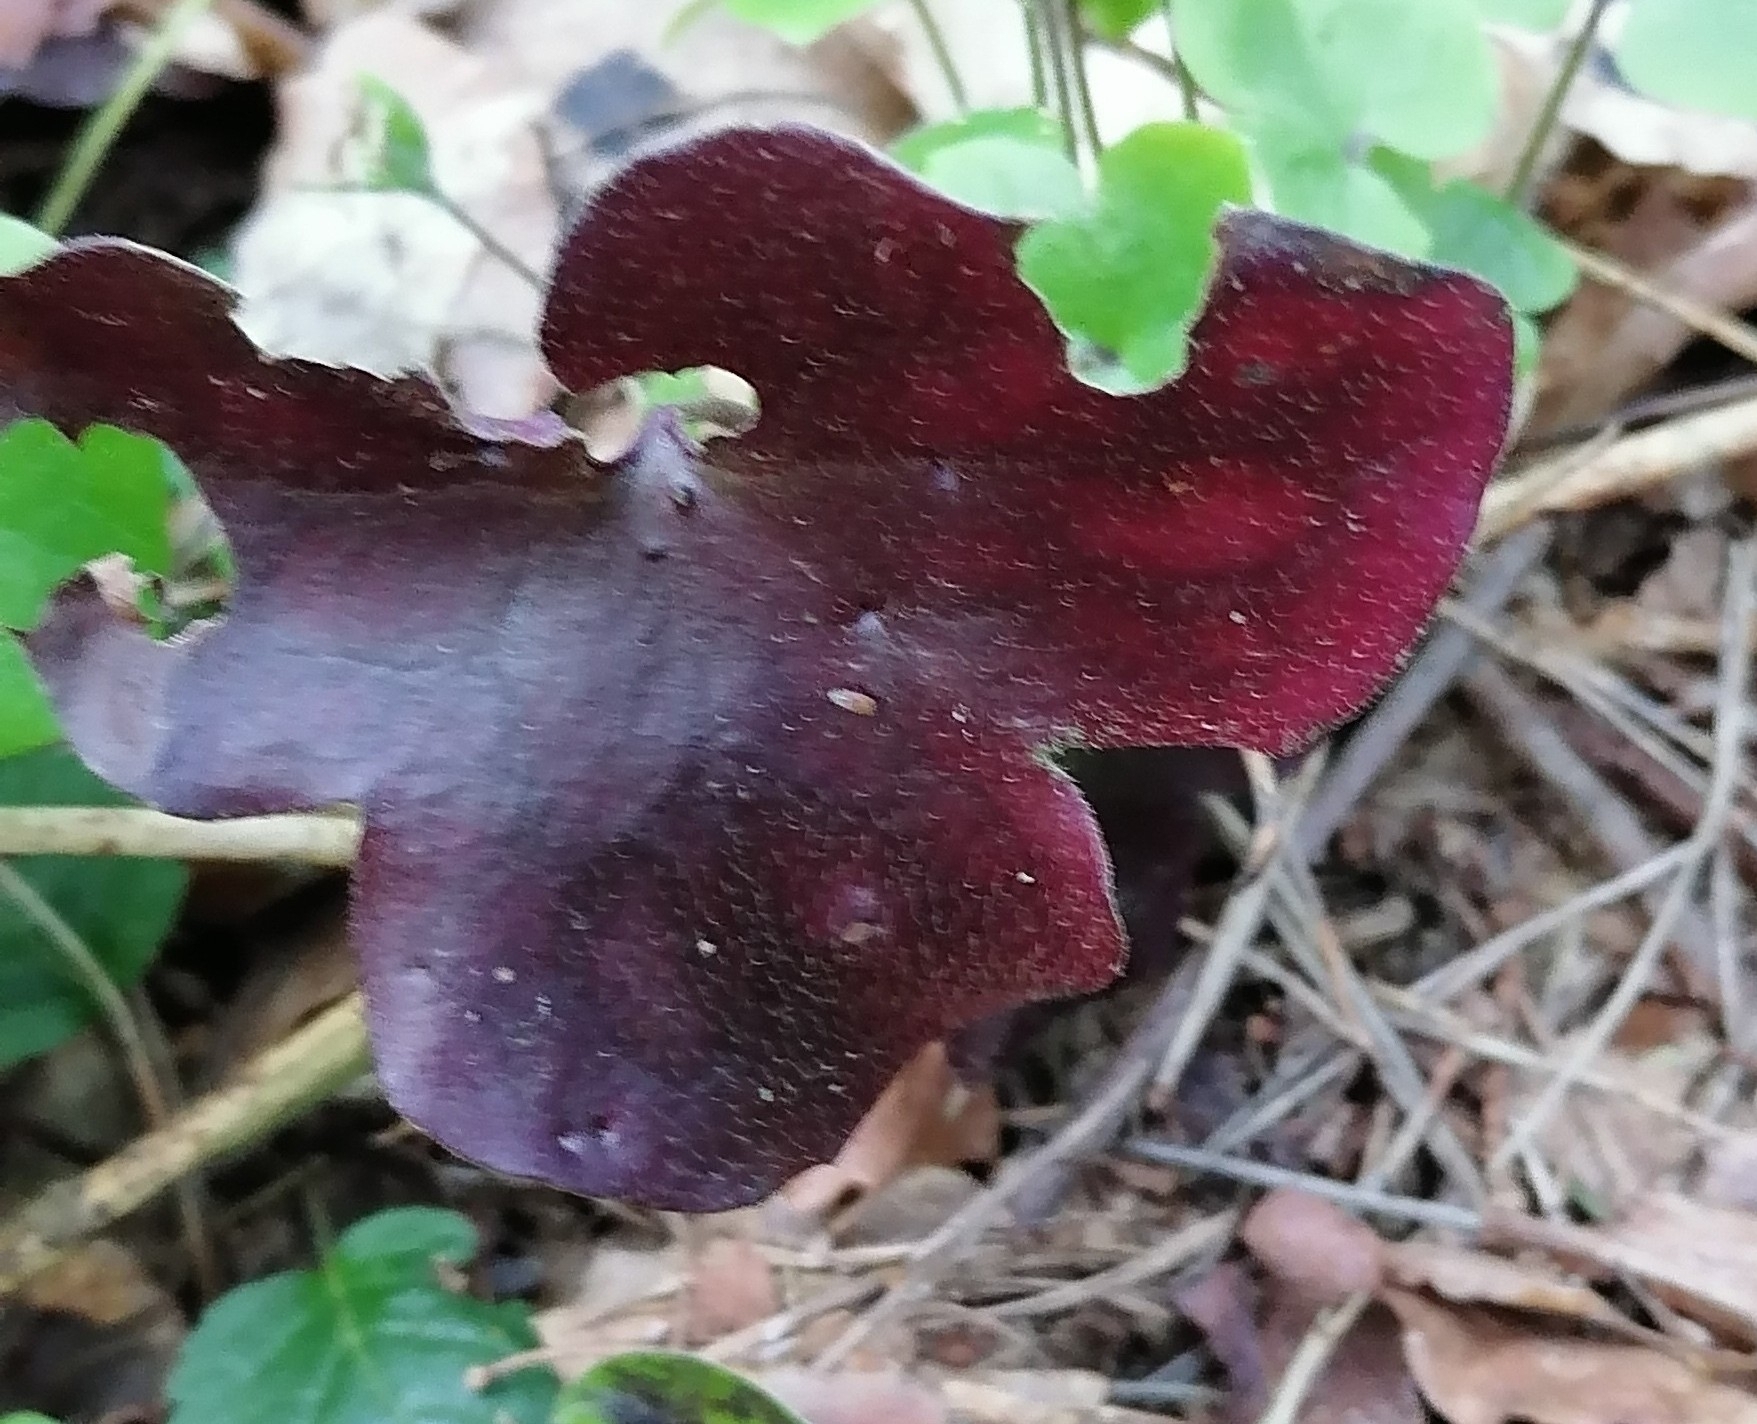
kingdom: Plantae
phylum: Tracheophyta
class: Magnoliopsida
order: Ranunculales
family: Ranunculaceae
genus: Hepatica
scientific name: Hepatica nobilis
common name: Liverleaf
